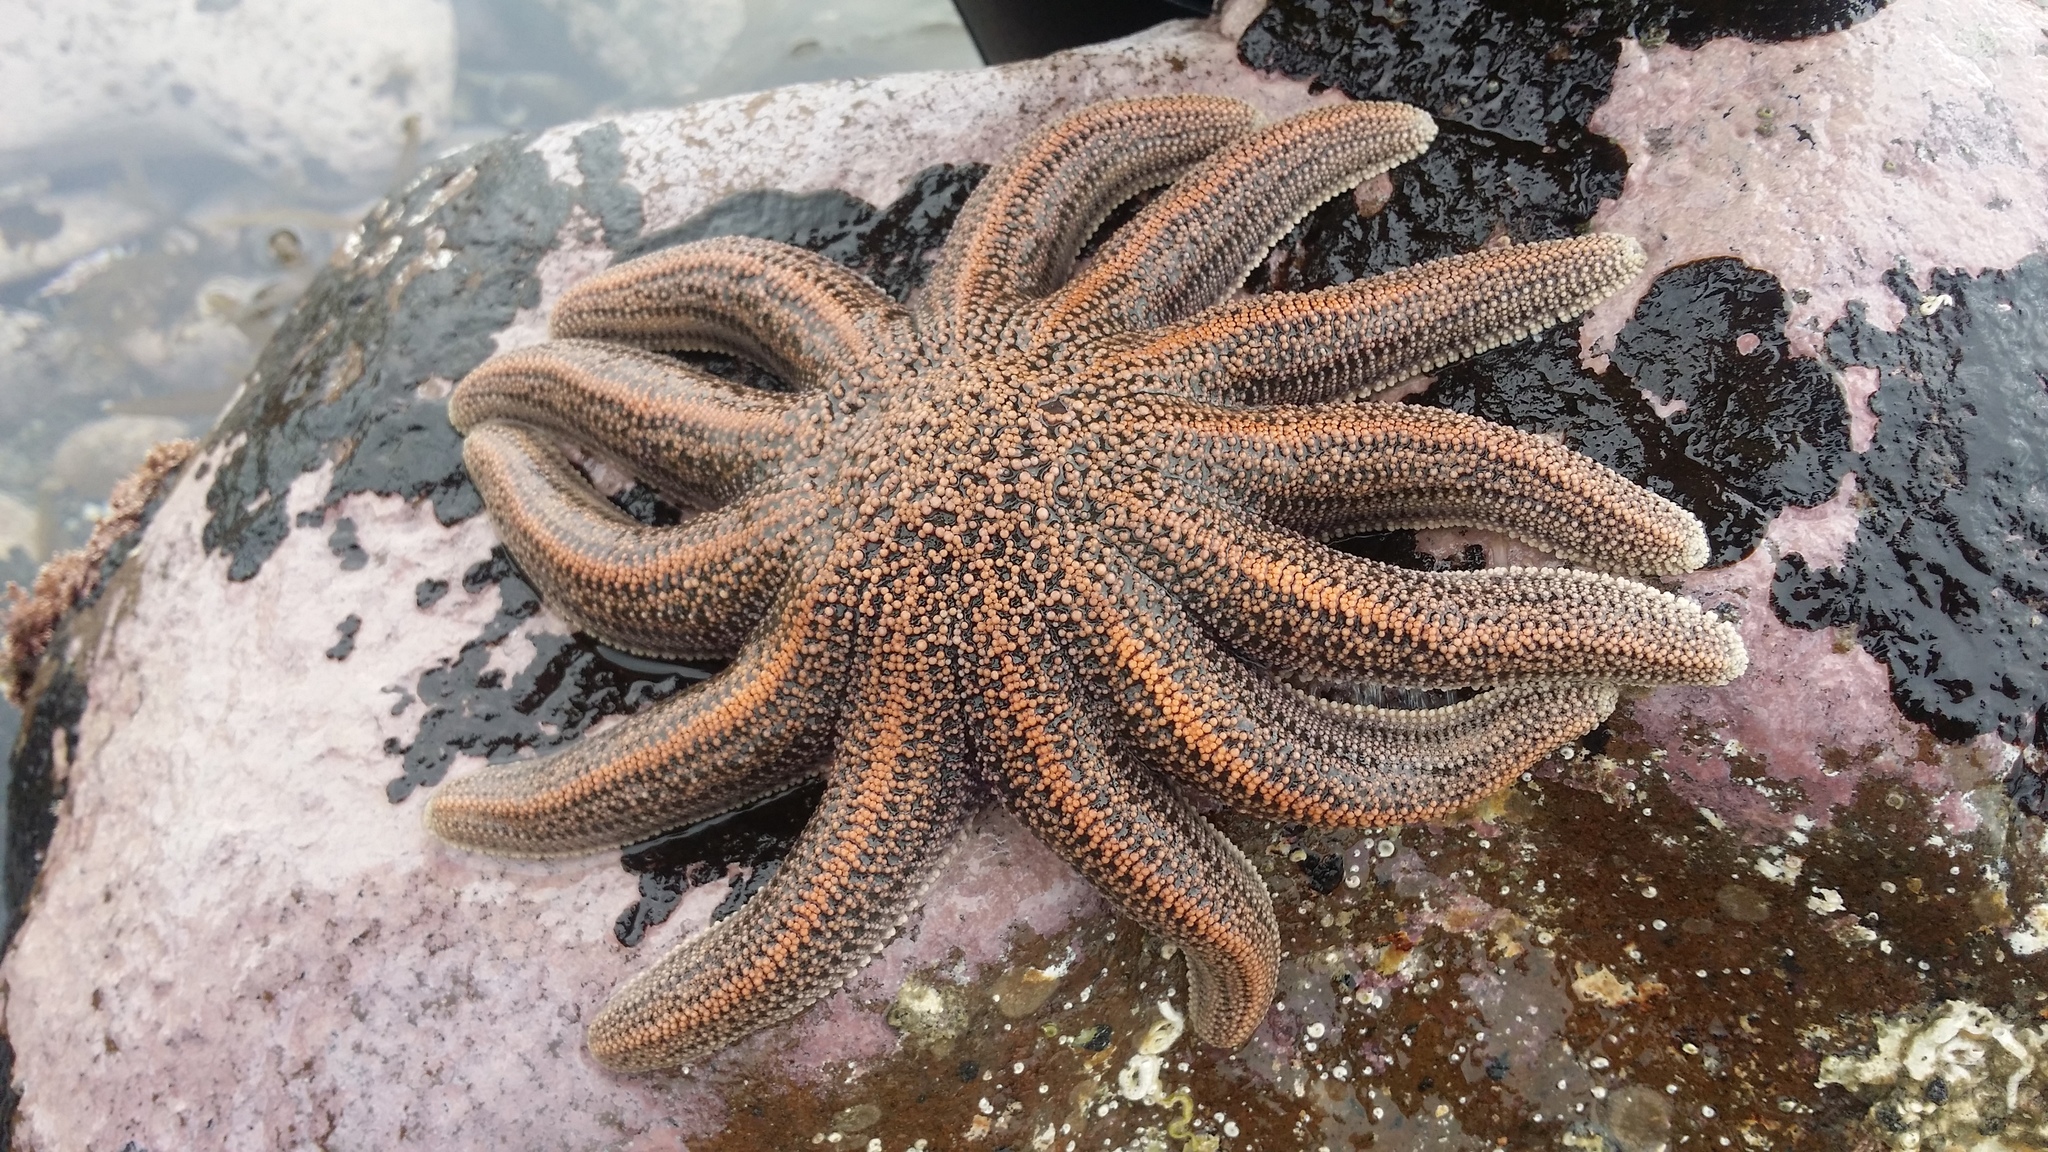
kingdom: Animalia
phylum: Echinodermata
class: Asteroidea
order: Forcipulatida
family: Stichasteridae
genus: Stichaster
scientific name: Stichaster australis
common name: Reef starfish
